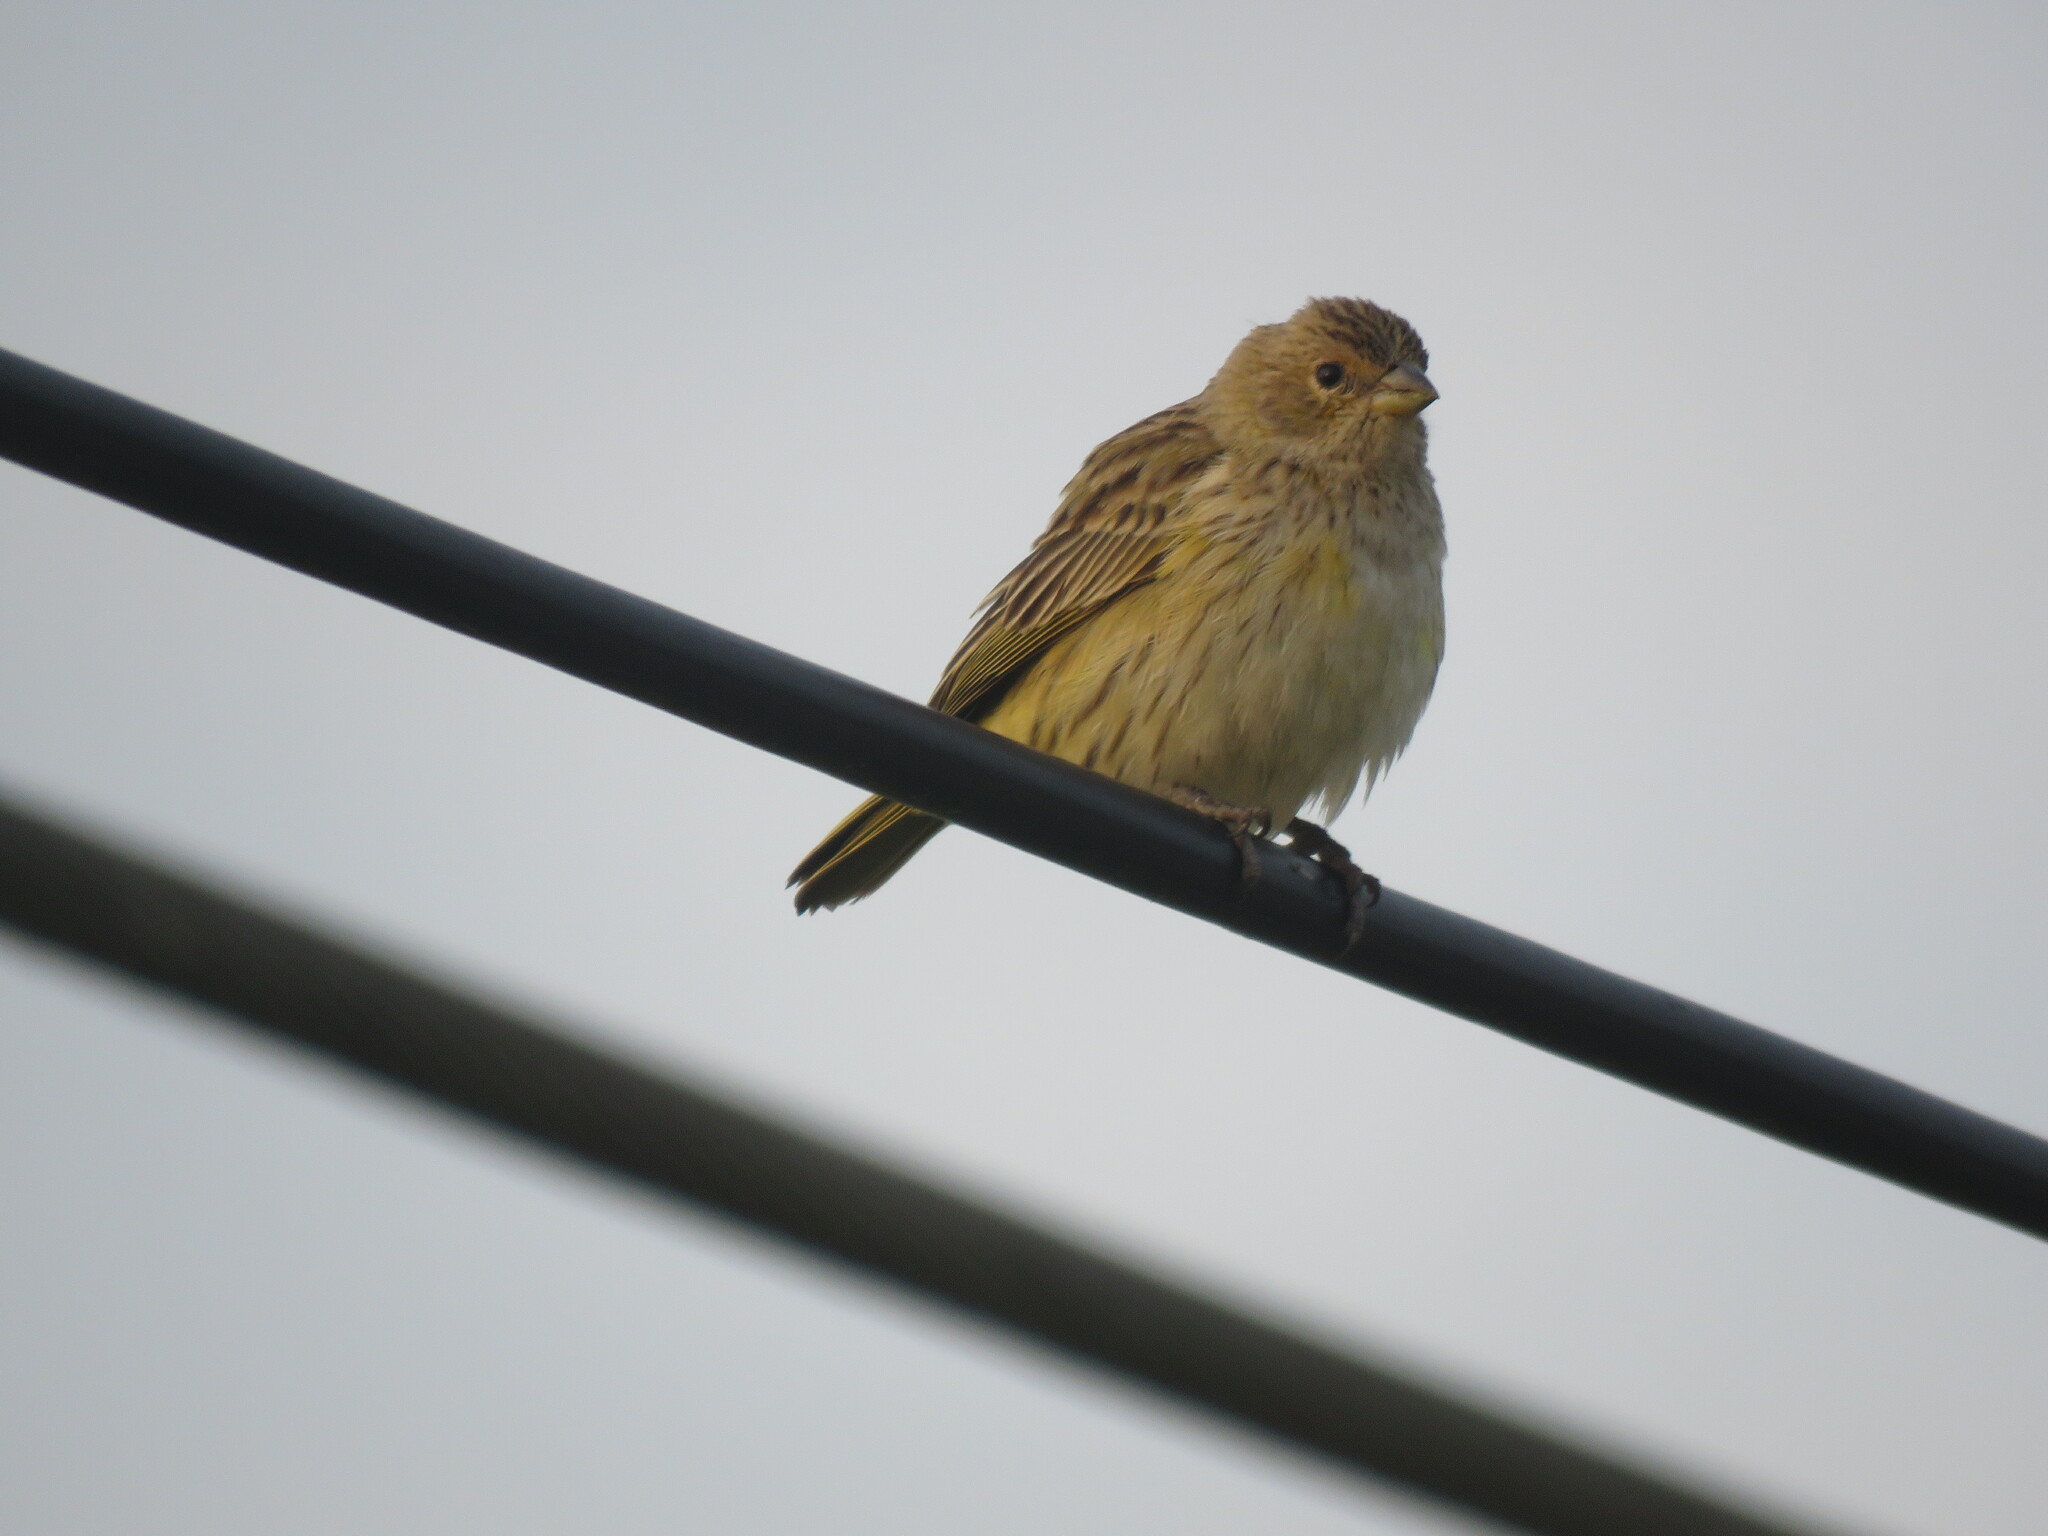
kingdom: Animalia
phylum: Chordata
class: Aves
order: Passeriformes
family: Thraupidae
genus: Sicalis
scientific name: Sicalis flaveola
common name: Saffron finch
